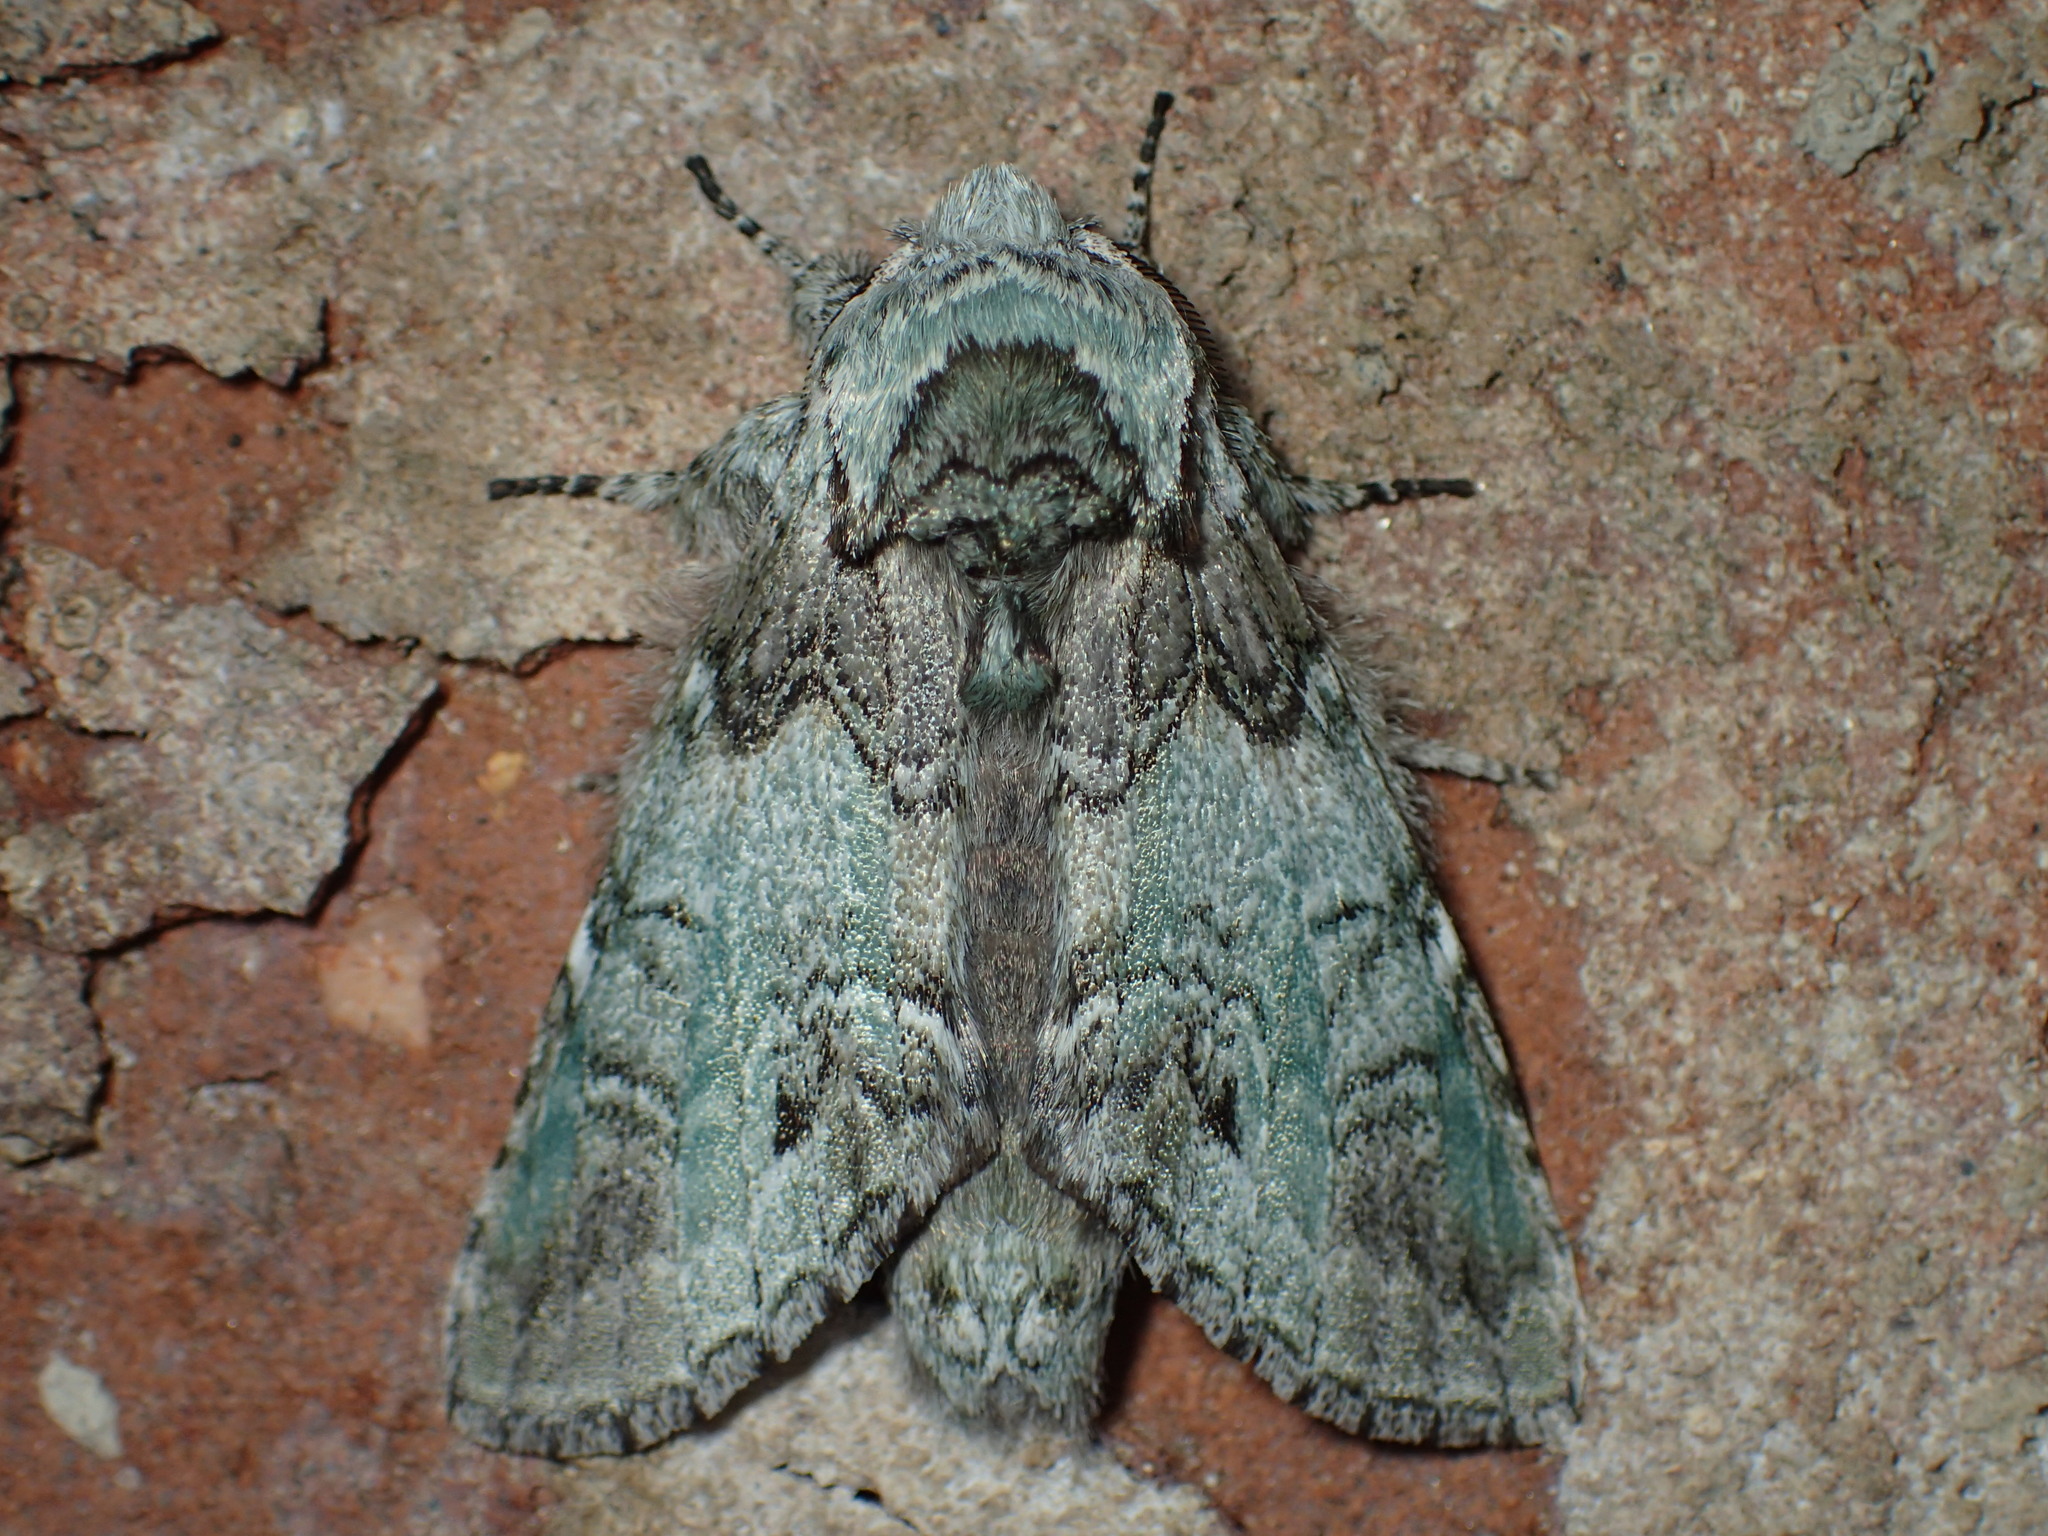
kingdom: Animalia
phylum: Arthropoda
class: Insecta
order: Lepidoptera
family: Notodontidae
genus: Macrurocampa
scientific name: Macrurocampa marthesia
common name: Mottled prominent
